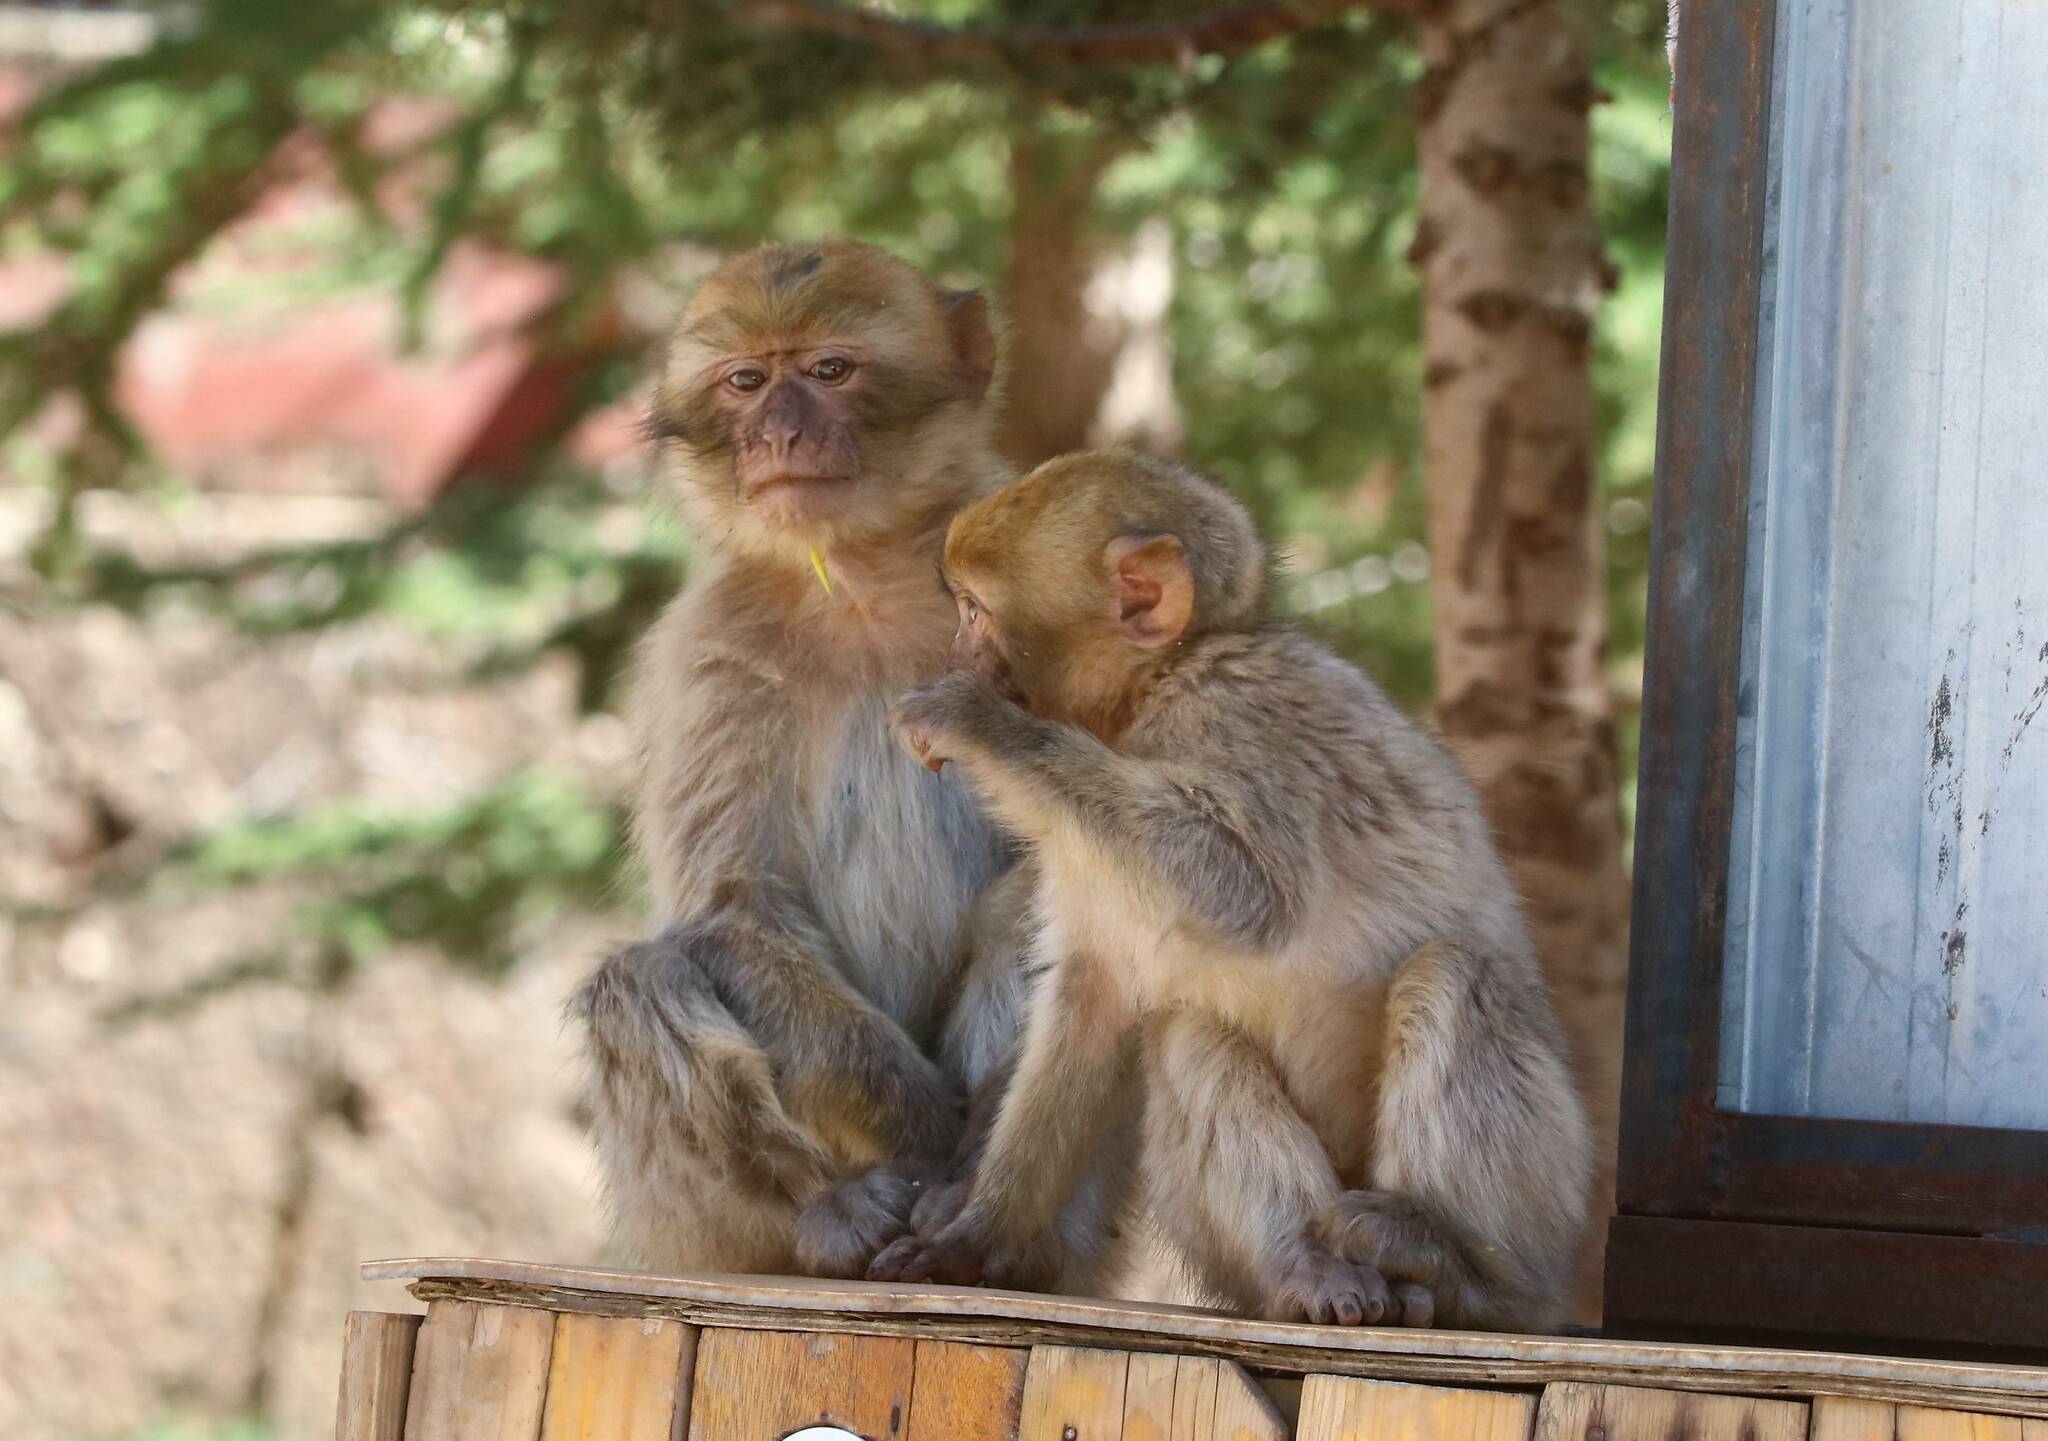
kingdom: Animalia
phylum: Chordata
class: Mammalia
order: Primates
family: Cercopithecidae
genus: Macaca
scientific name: Macaca sylvanus
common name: Barbary macaque
